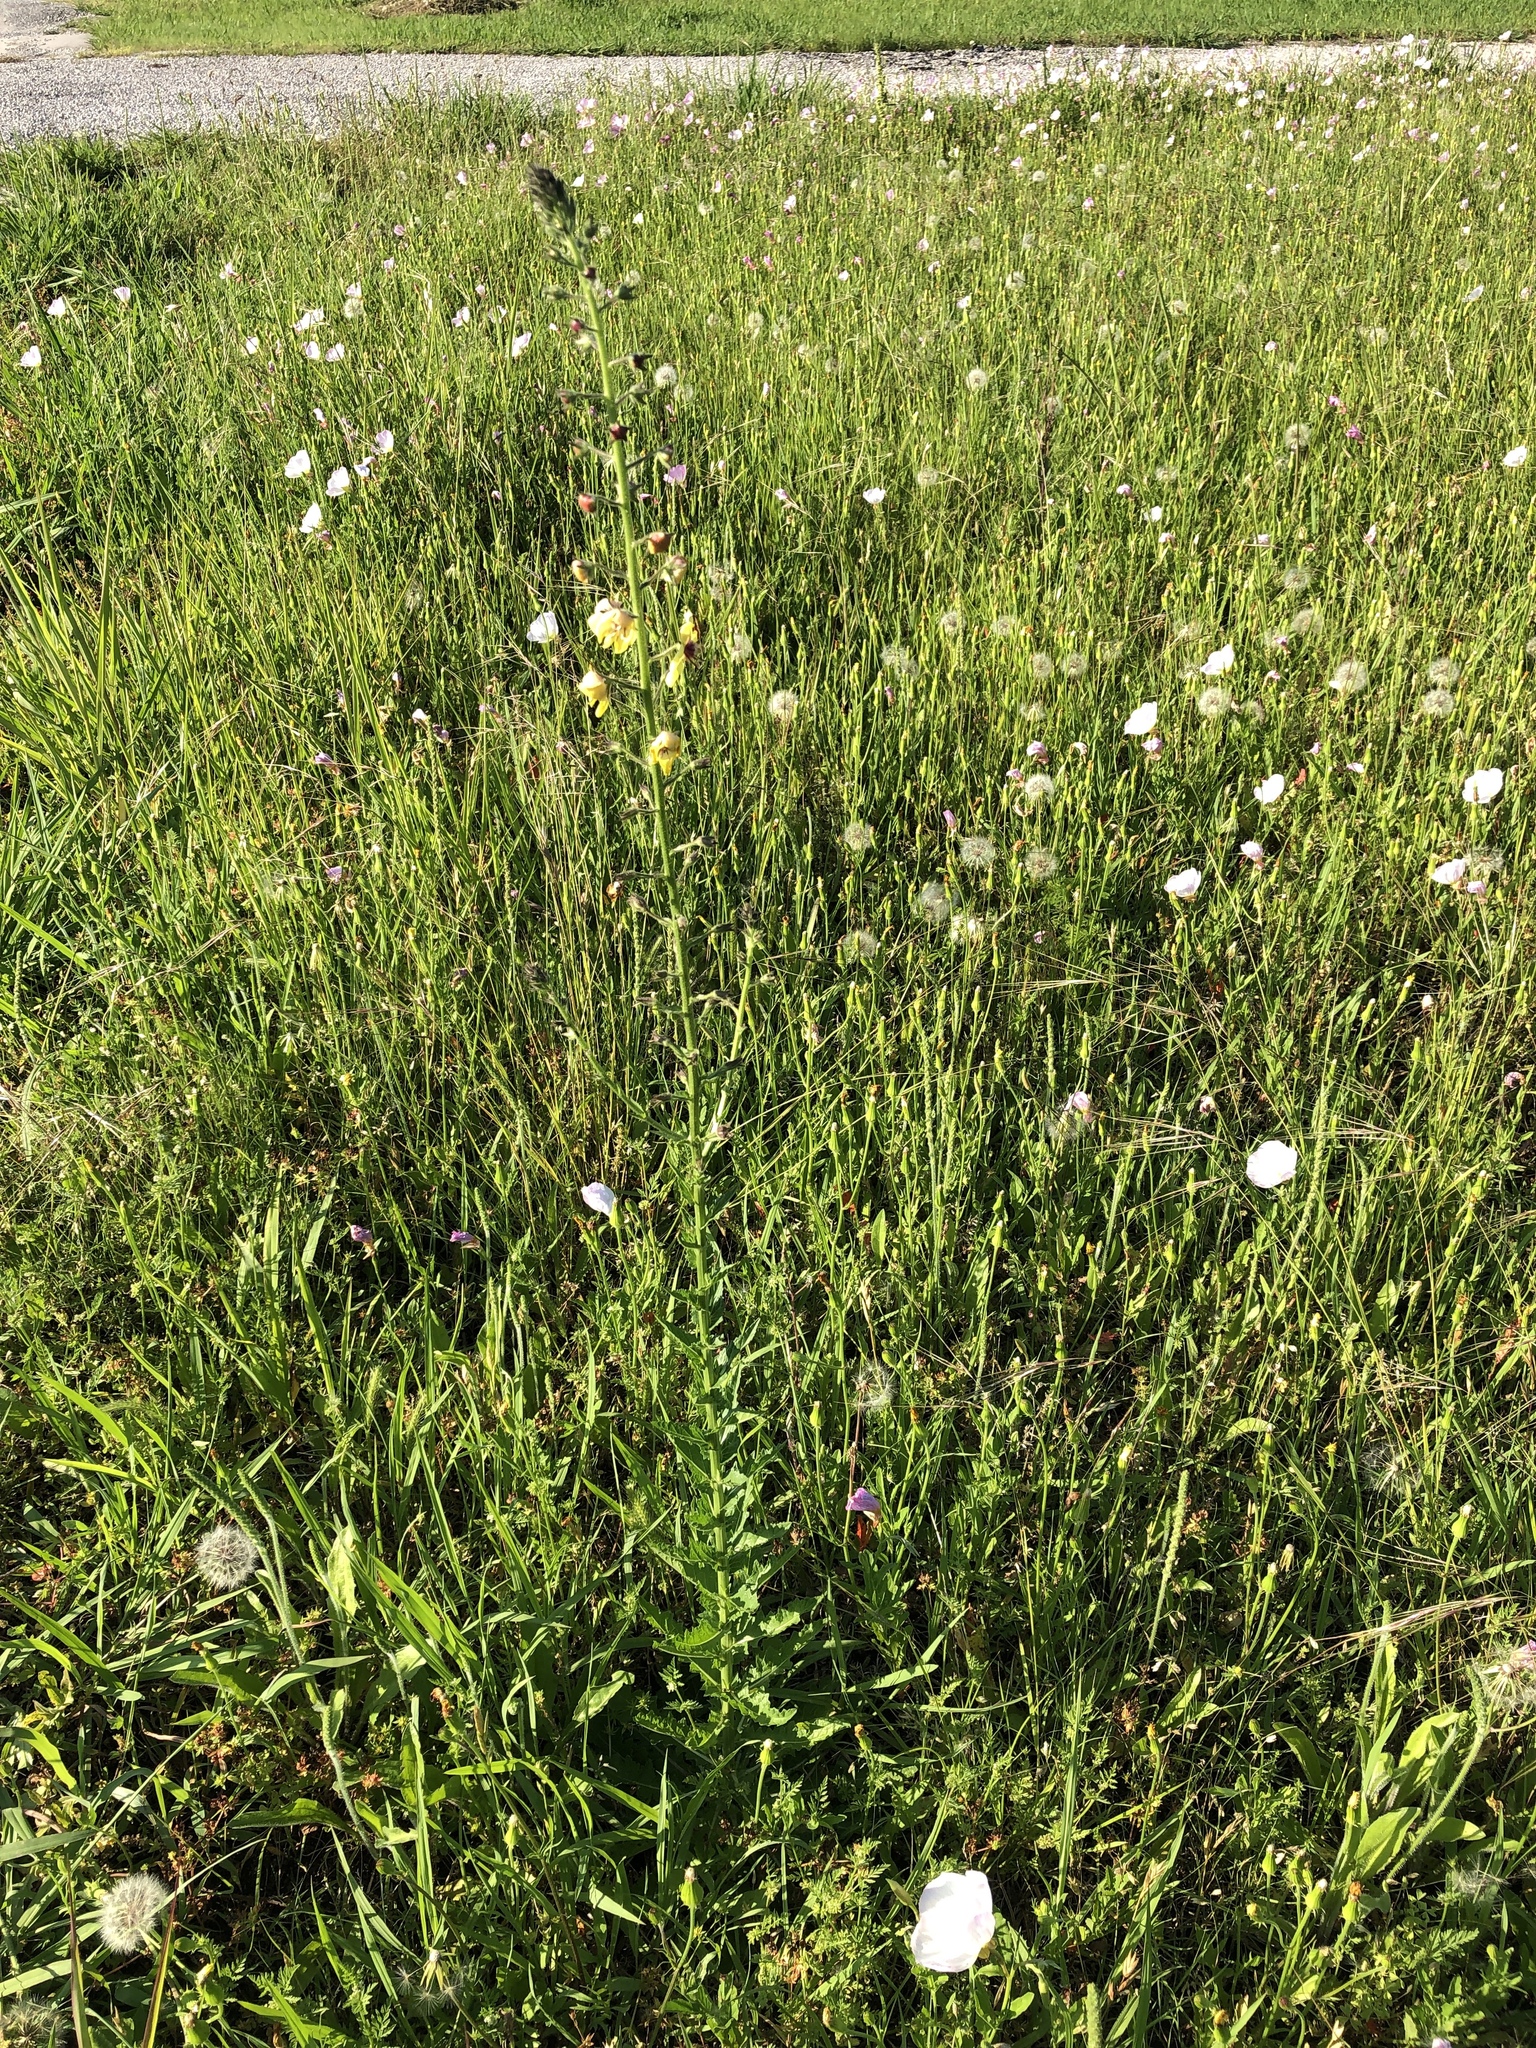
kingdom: Plantae
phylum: Tracheophyta
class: Magnoliopsida
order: Lamiales
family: Scrophulariaceae
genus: Verbascum
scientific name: Verbascum blattaria
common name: Moth mullein
